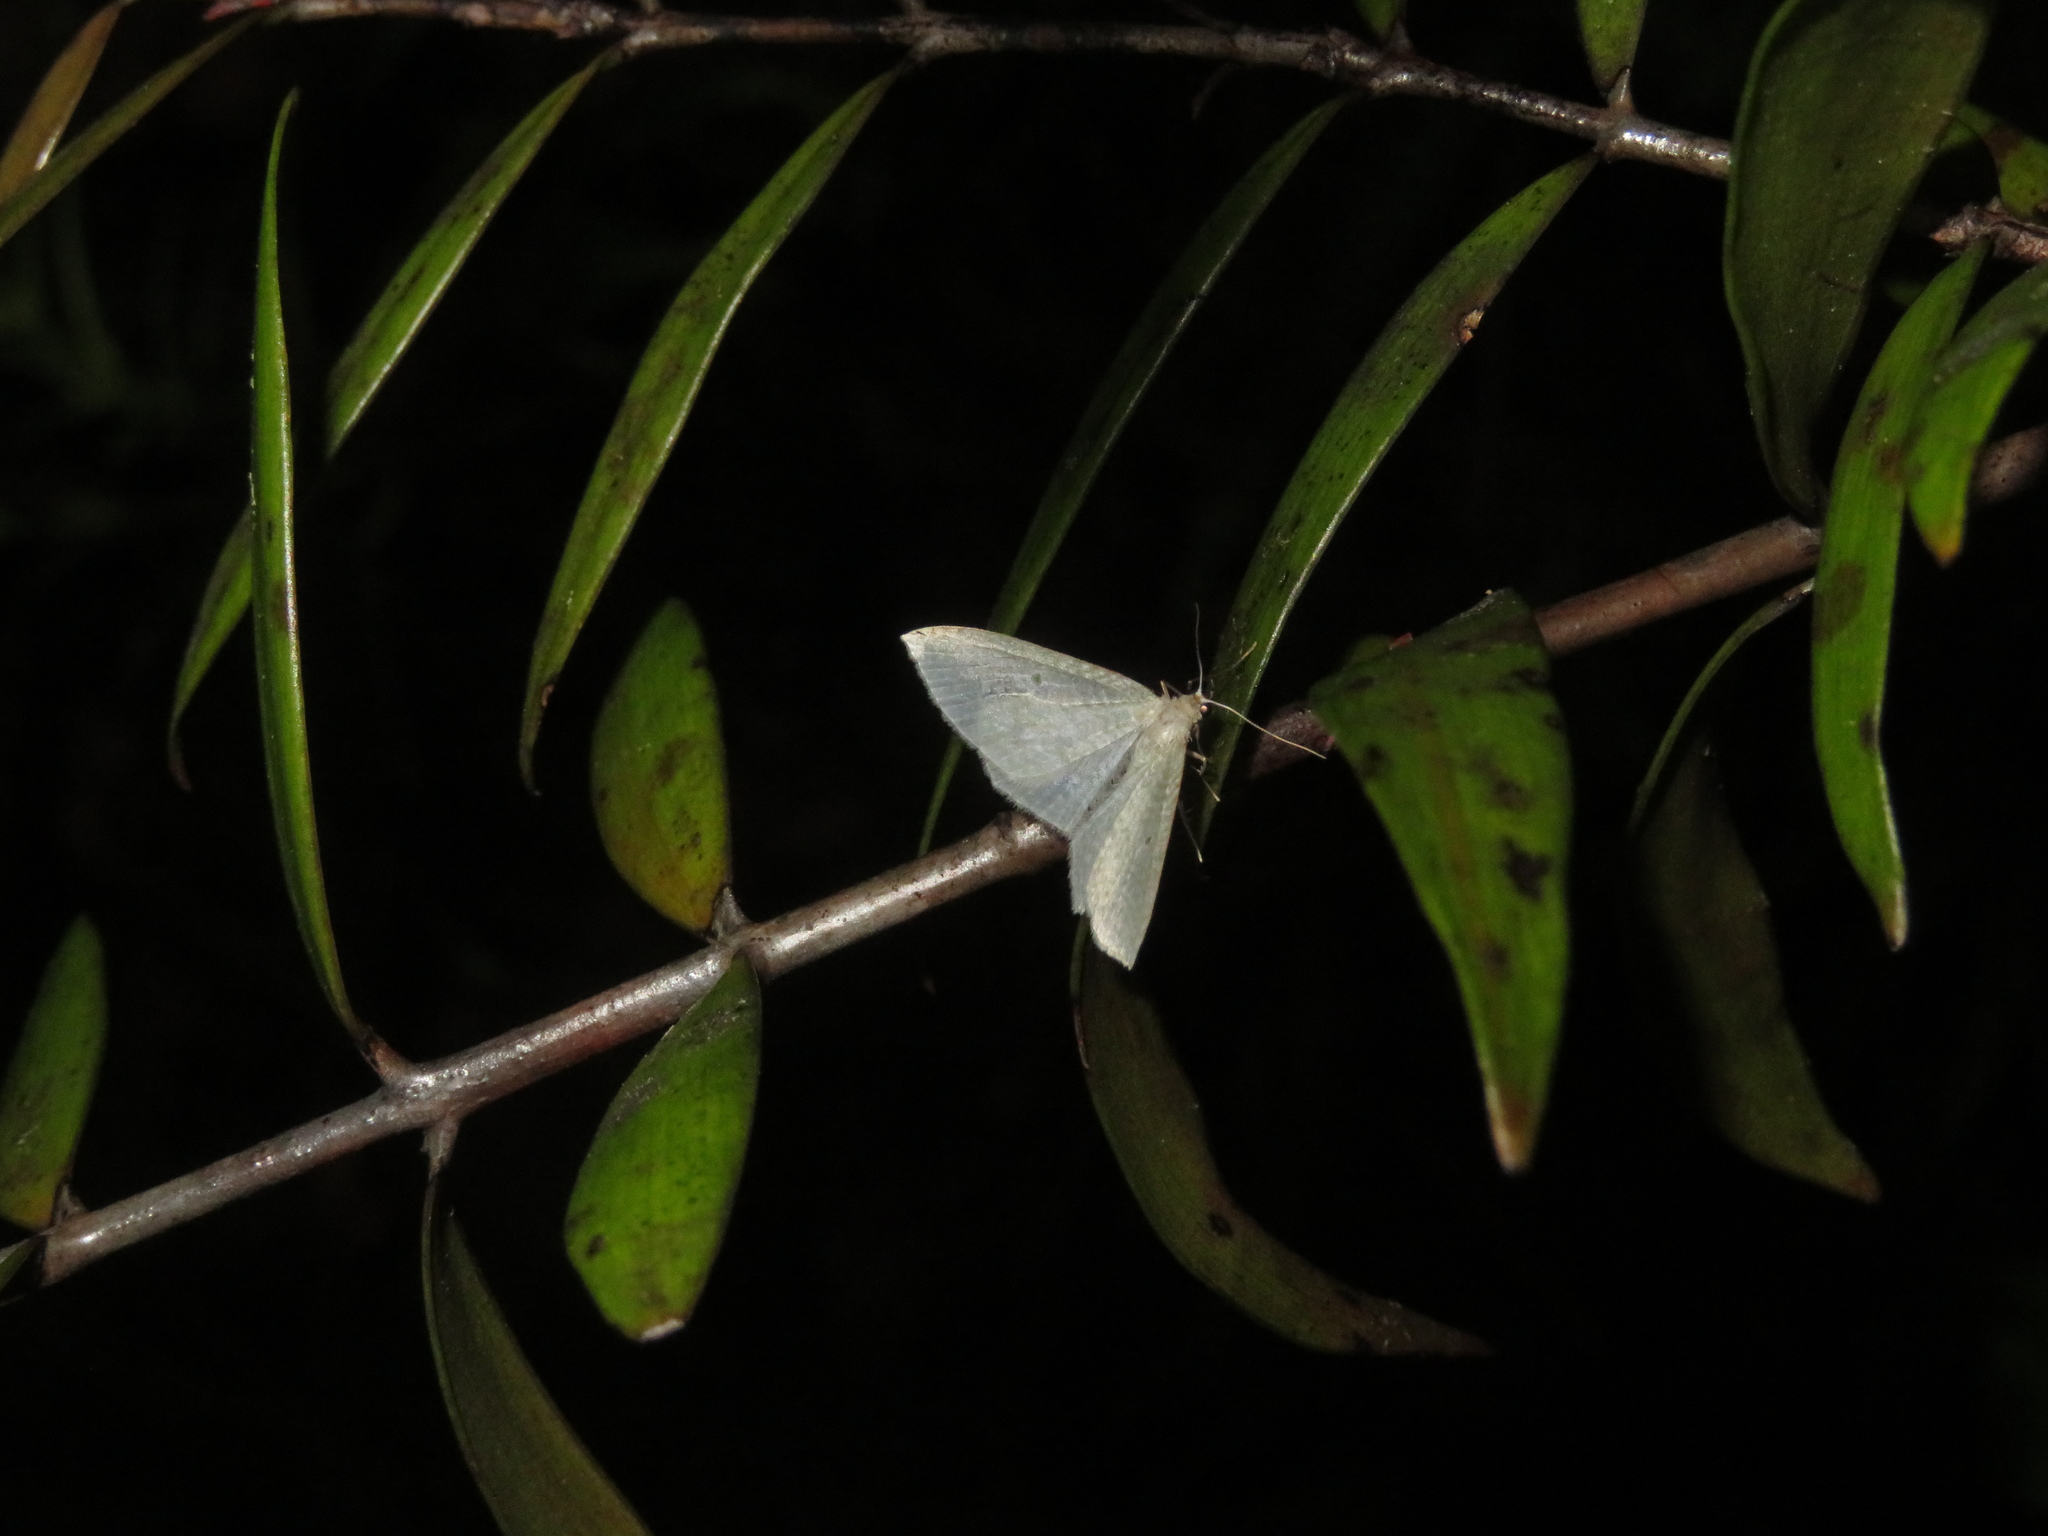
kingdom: Animalia
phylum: Arthropoda
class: Insecta
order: Lepidoptera
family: Geometridae
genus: Poecilasthena
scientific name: Poecilasthena pulchraria
